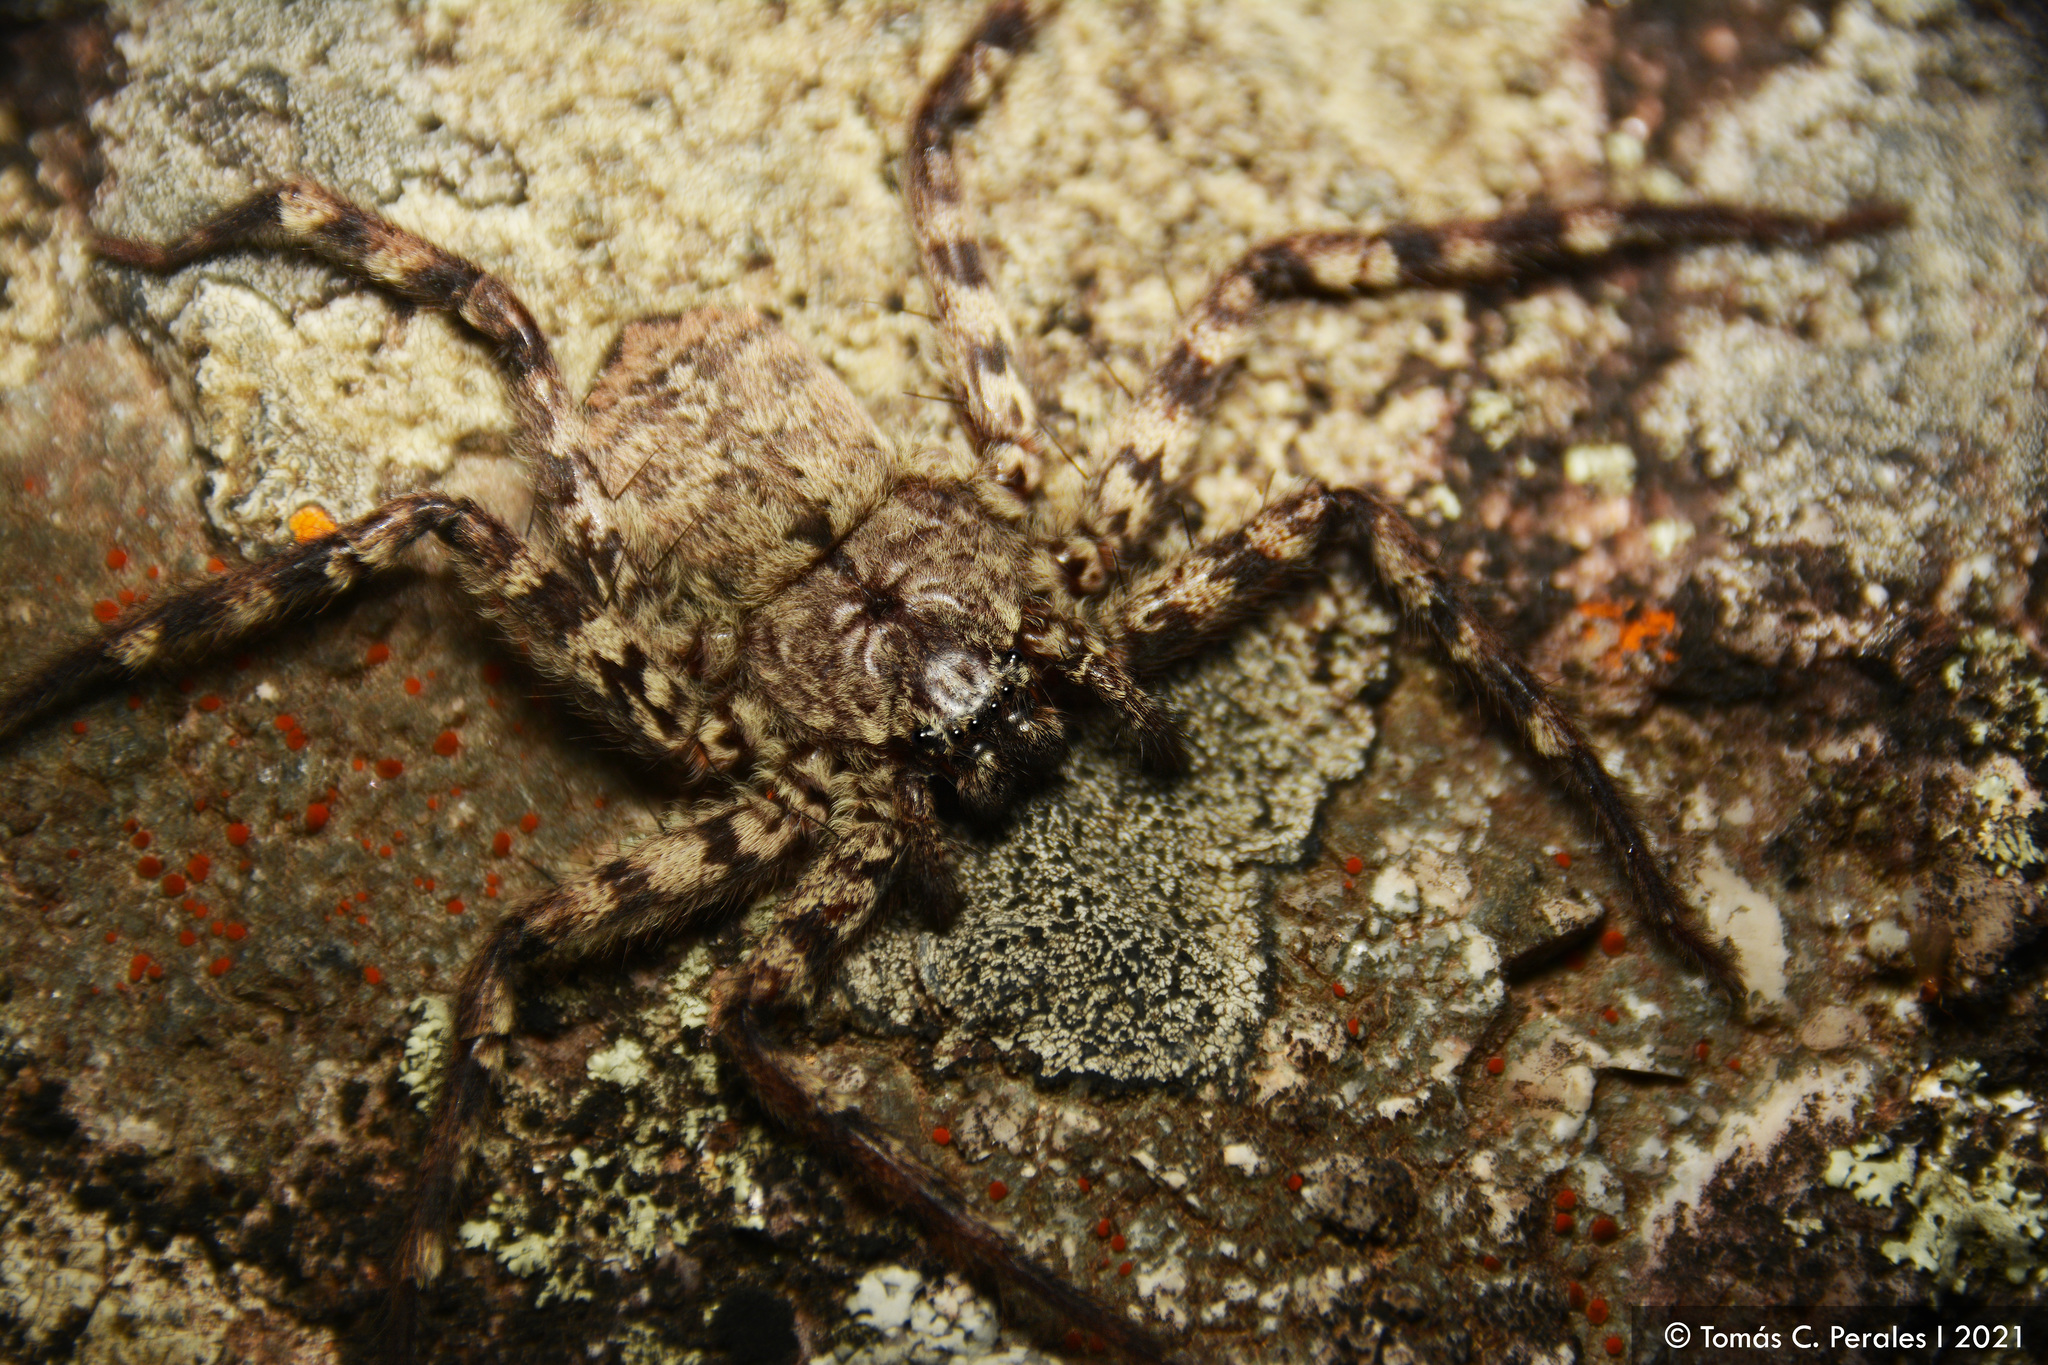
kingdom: Animalia
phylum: Arthropoda
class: Arachnida
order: Araneae
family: Selenopidae
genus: Selenops
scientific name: Selenops
